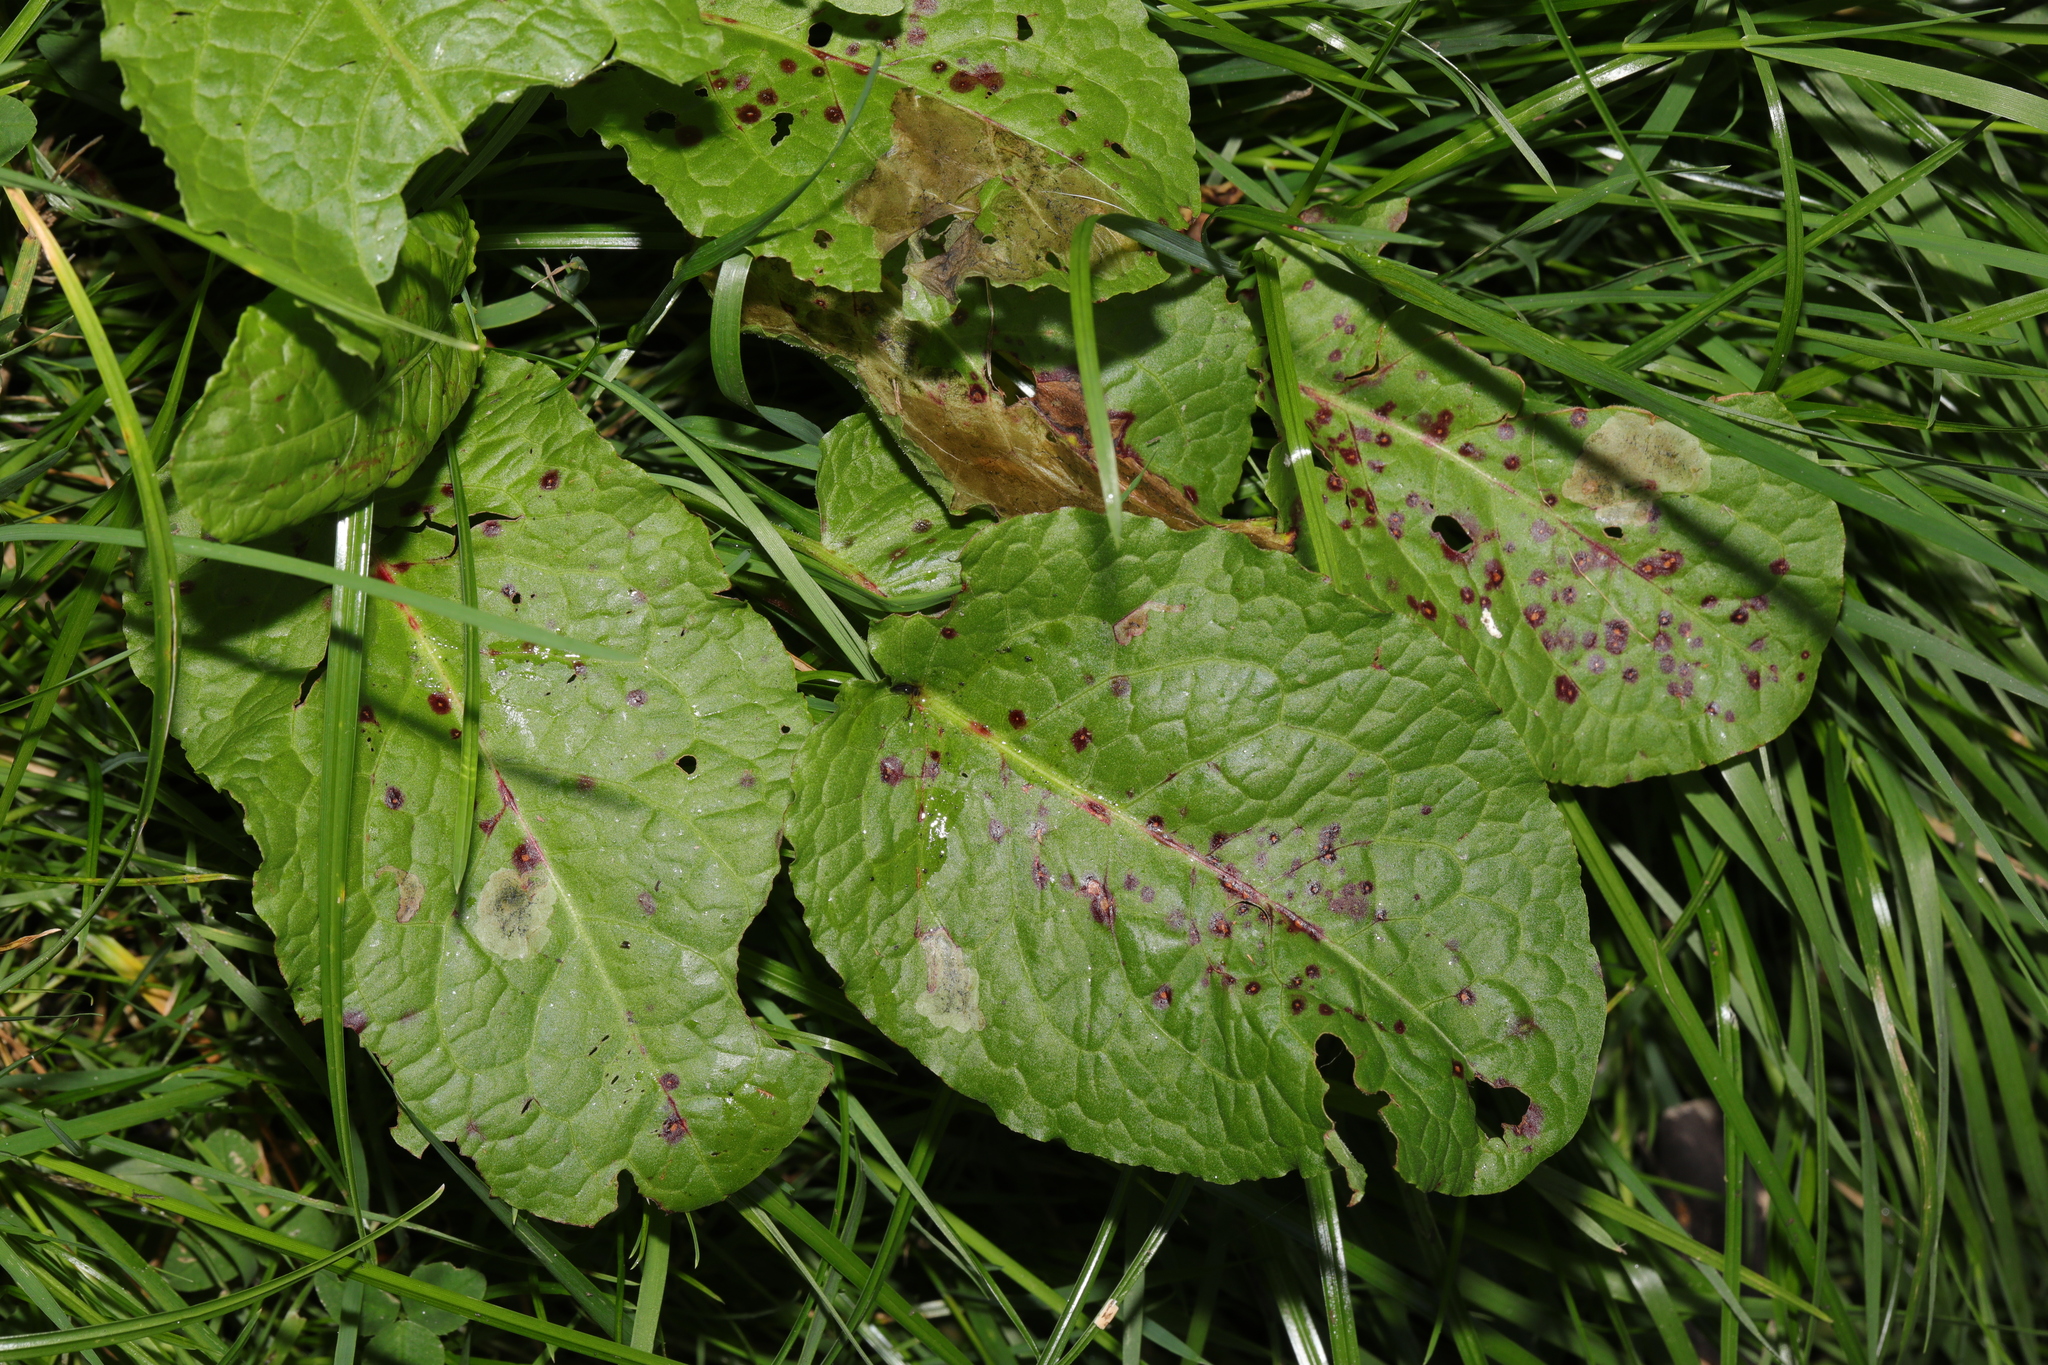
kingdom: Plantae
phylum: Tracheophyta
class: Magnoliopsida
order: Caryophyllales
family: Polygonaceae
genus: Rumex
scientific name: Rumex obtusifolius
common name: Bitter dock
